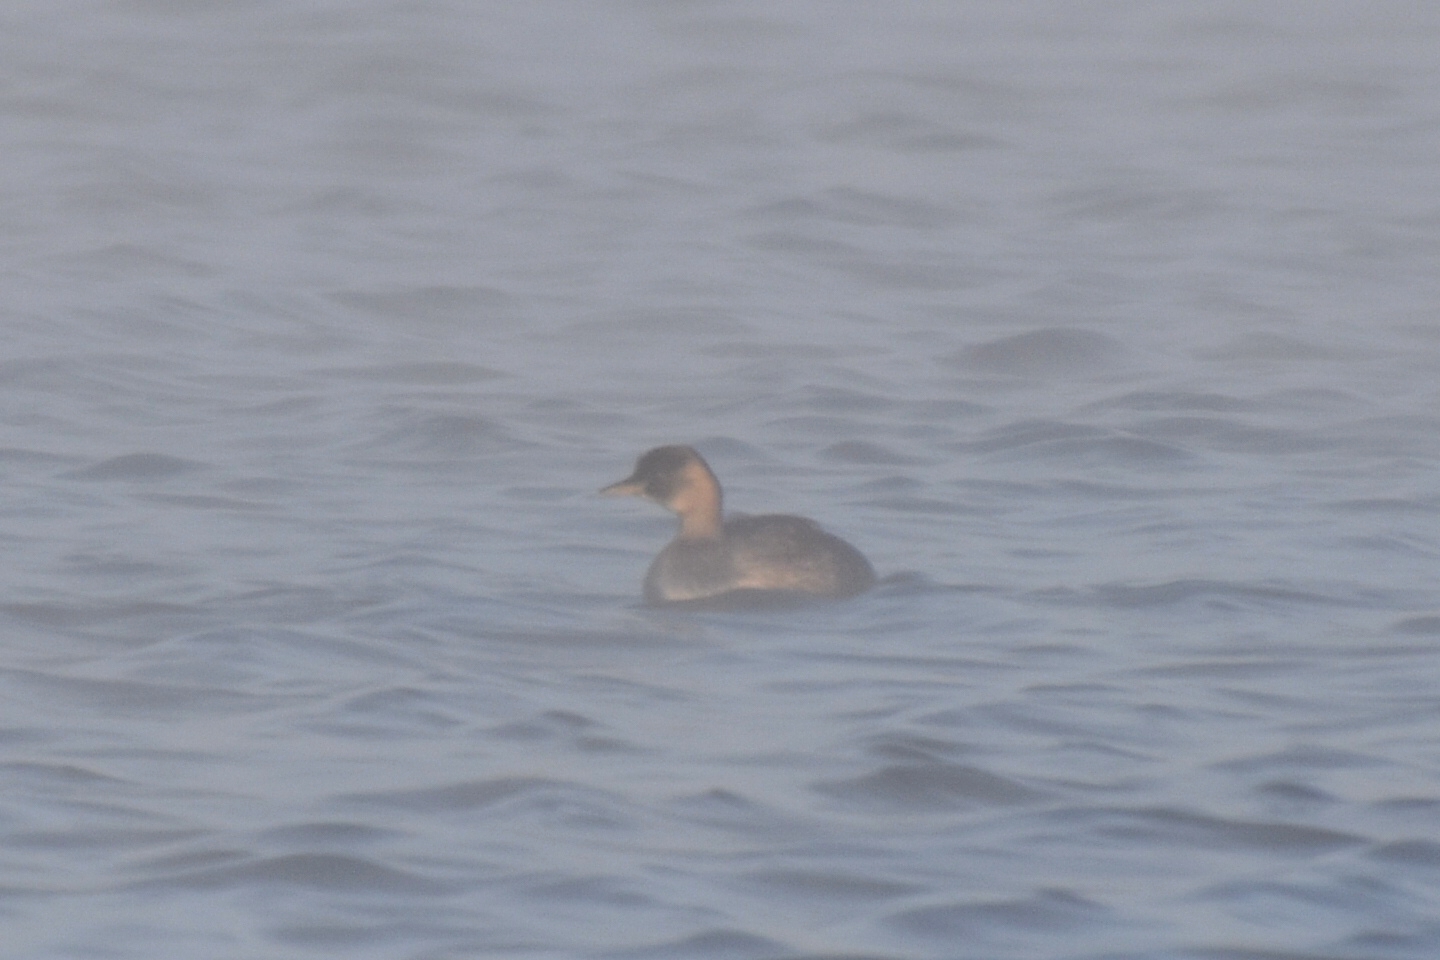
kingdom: Animalia
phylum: Chordata
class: Aves
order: Podicipediformes
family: Podicipedidae
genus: Tachybaptus
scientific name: Tachybaptus ruficollis
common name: Little grebe
